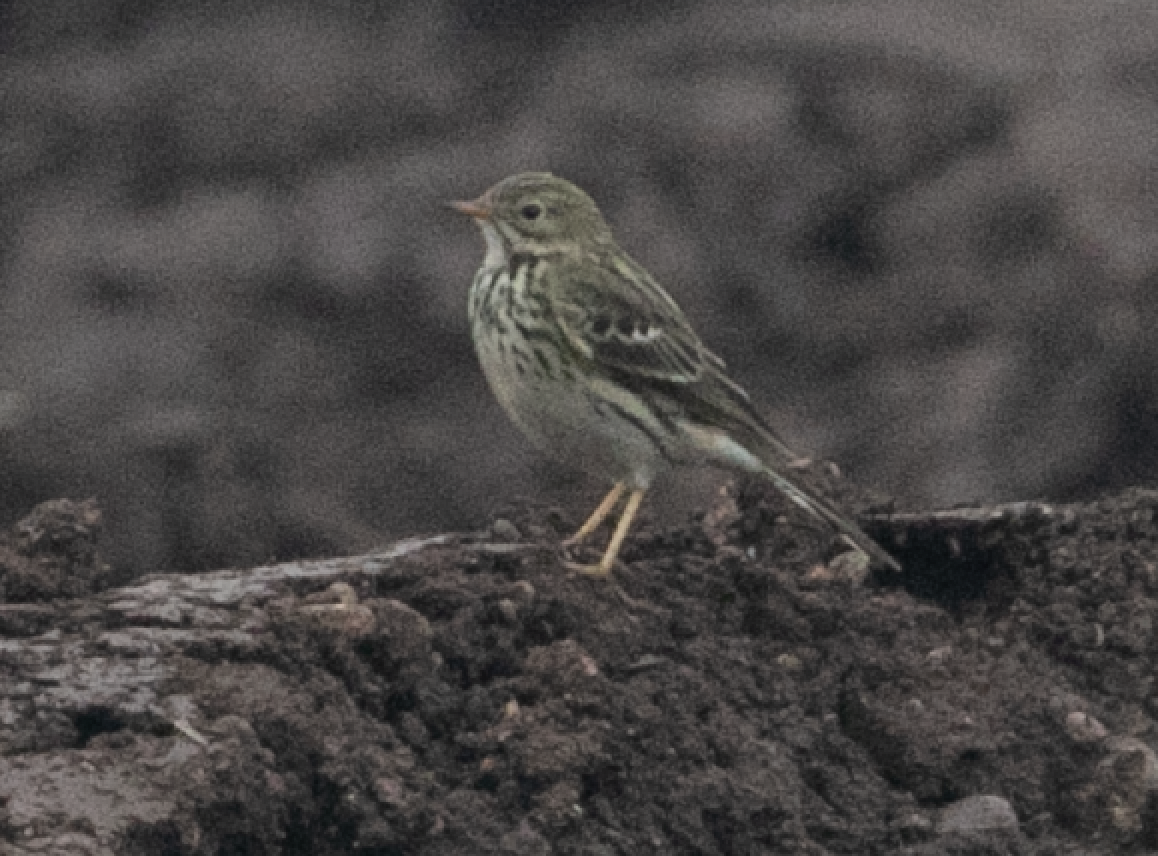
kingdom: Animalia
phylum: Chordata
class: Aves
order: Passeriformes
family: Motacillidae
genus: Anthus
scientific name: Anthus pratensis
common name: Meadow pipit
